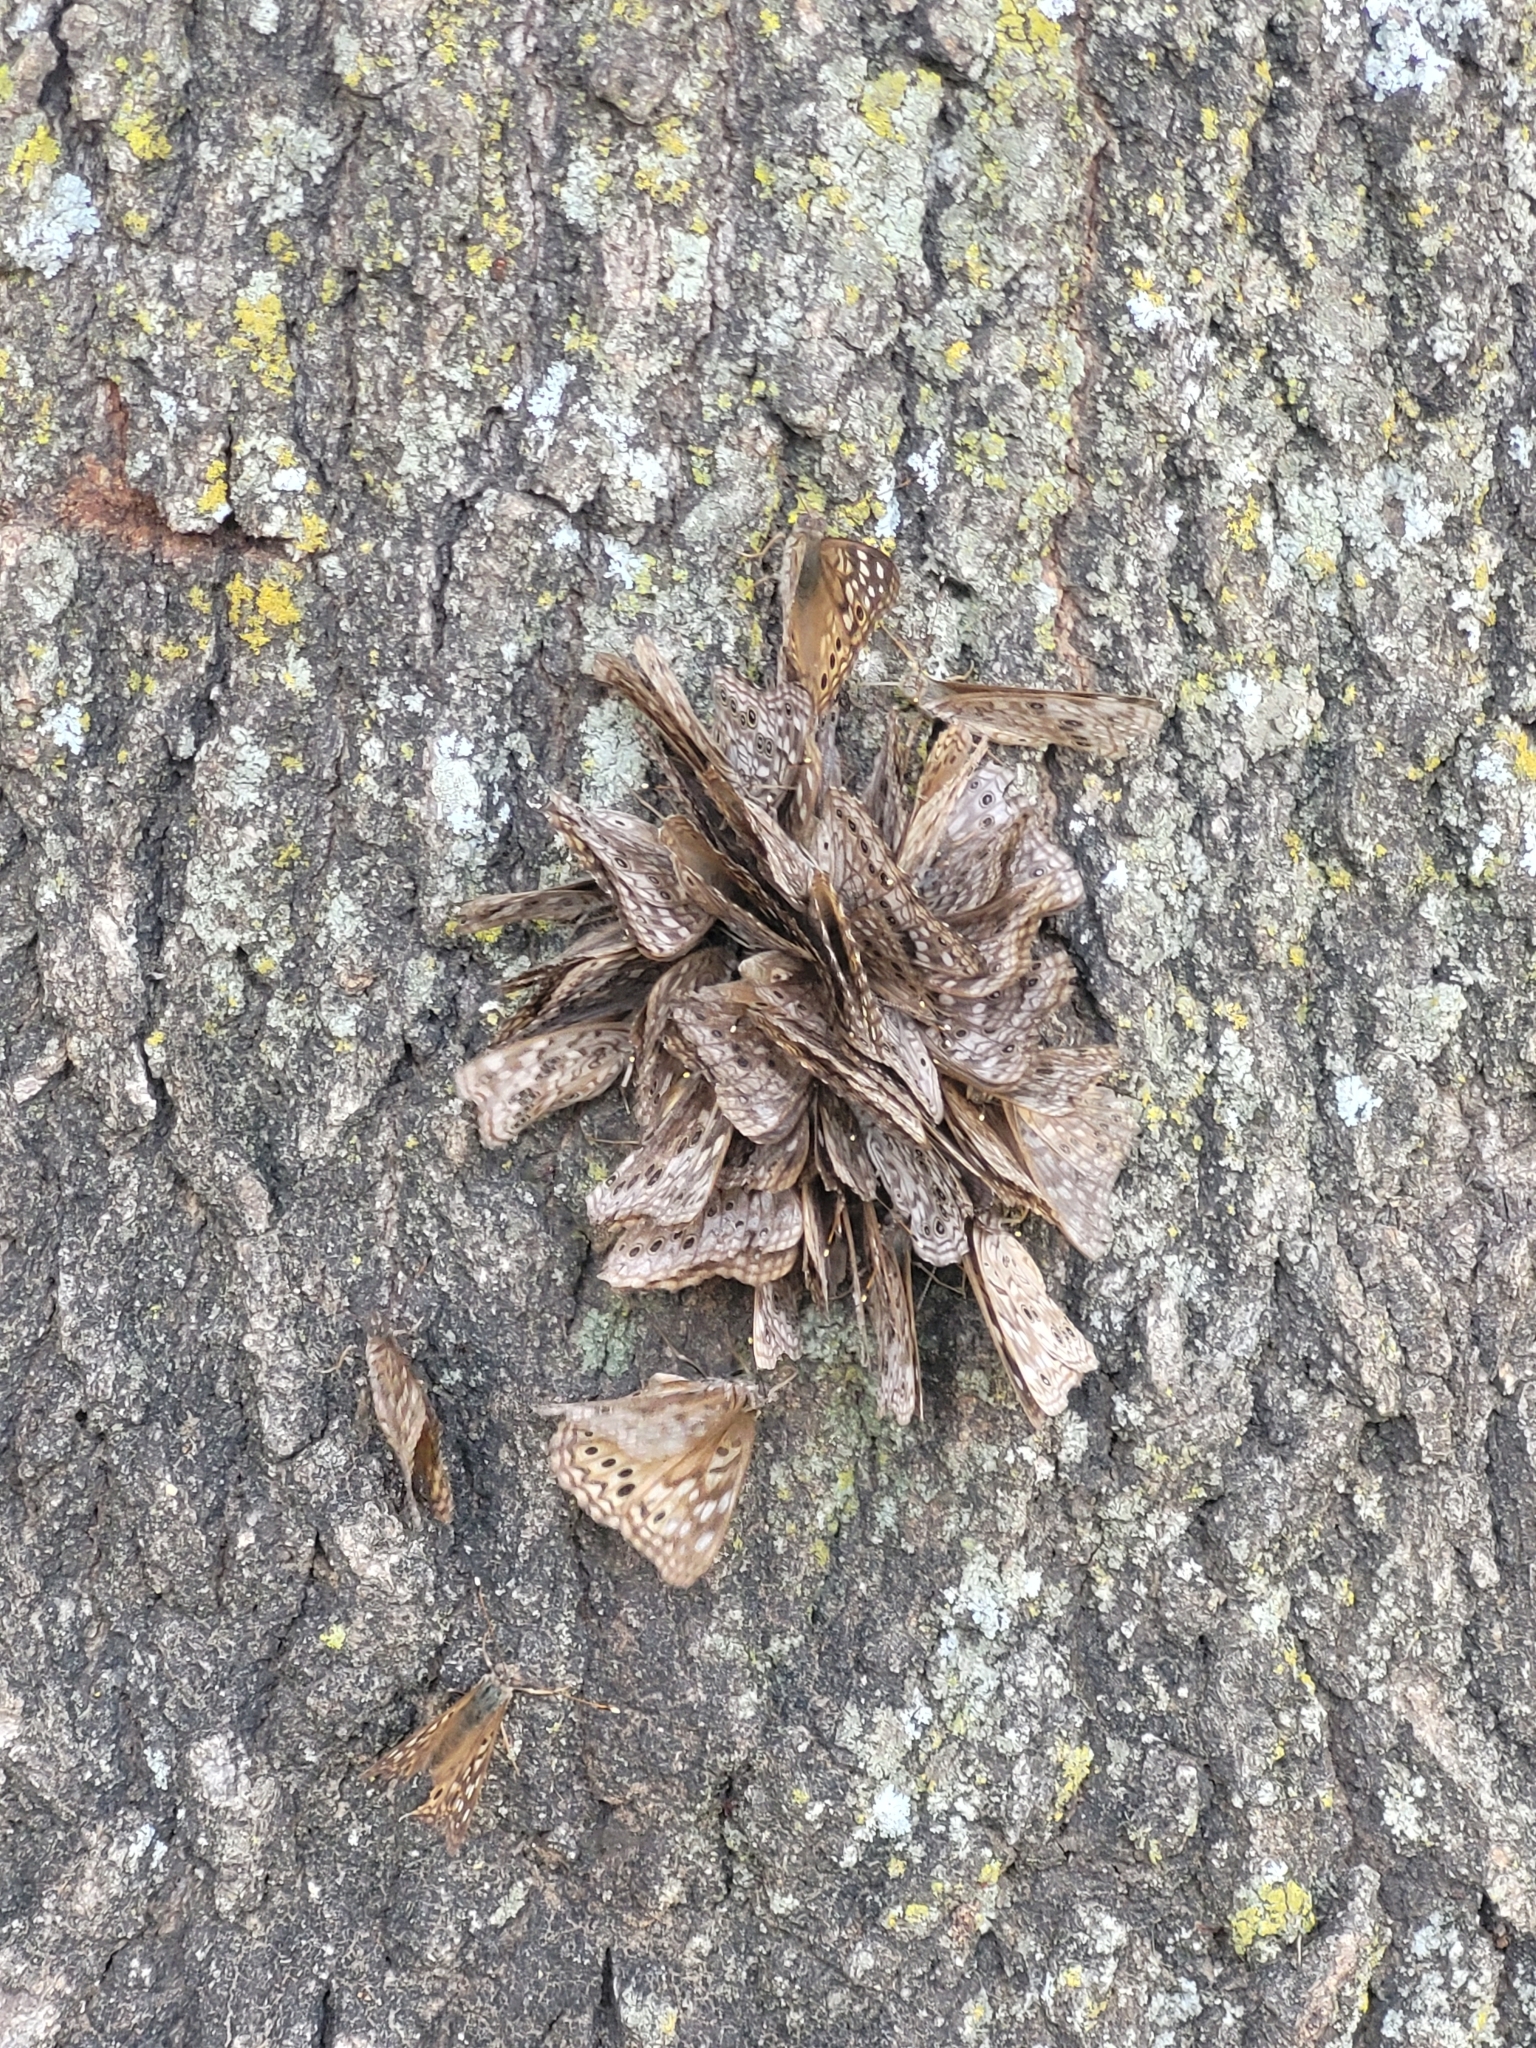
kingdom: Animalia
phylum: Arthropoda
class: Insecta
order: Lepidoptera
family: Nymphalidae
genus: Asterocampa
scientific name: Asterocampa celtis
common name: Hackberry emperor
